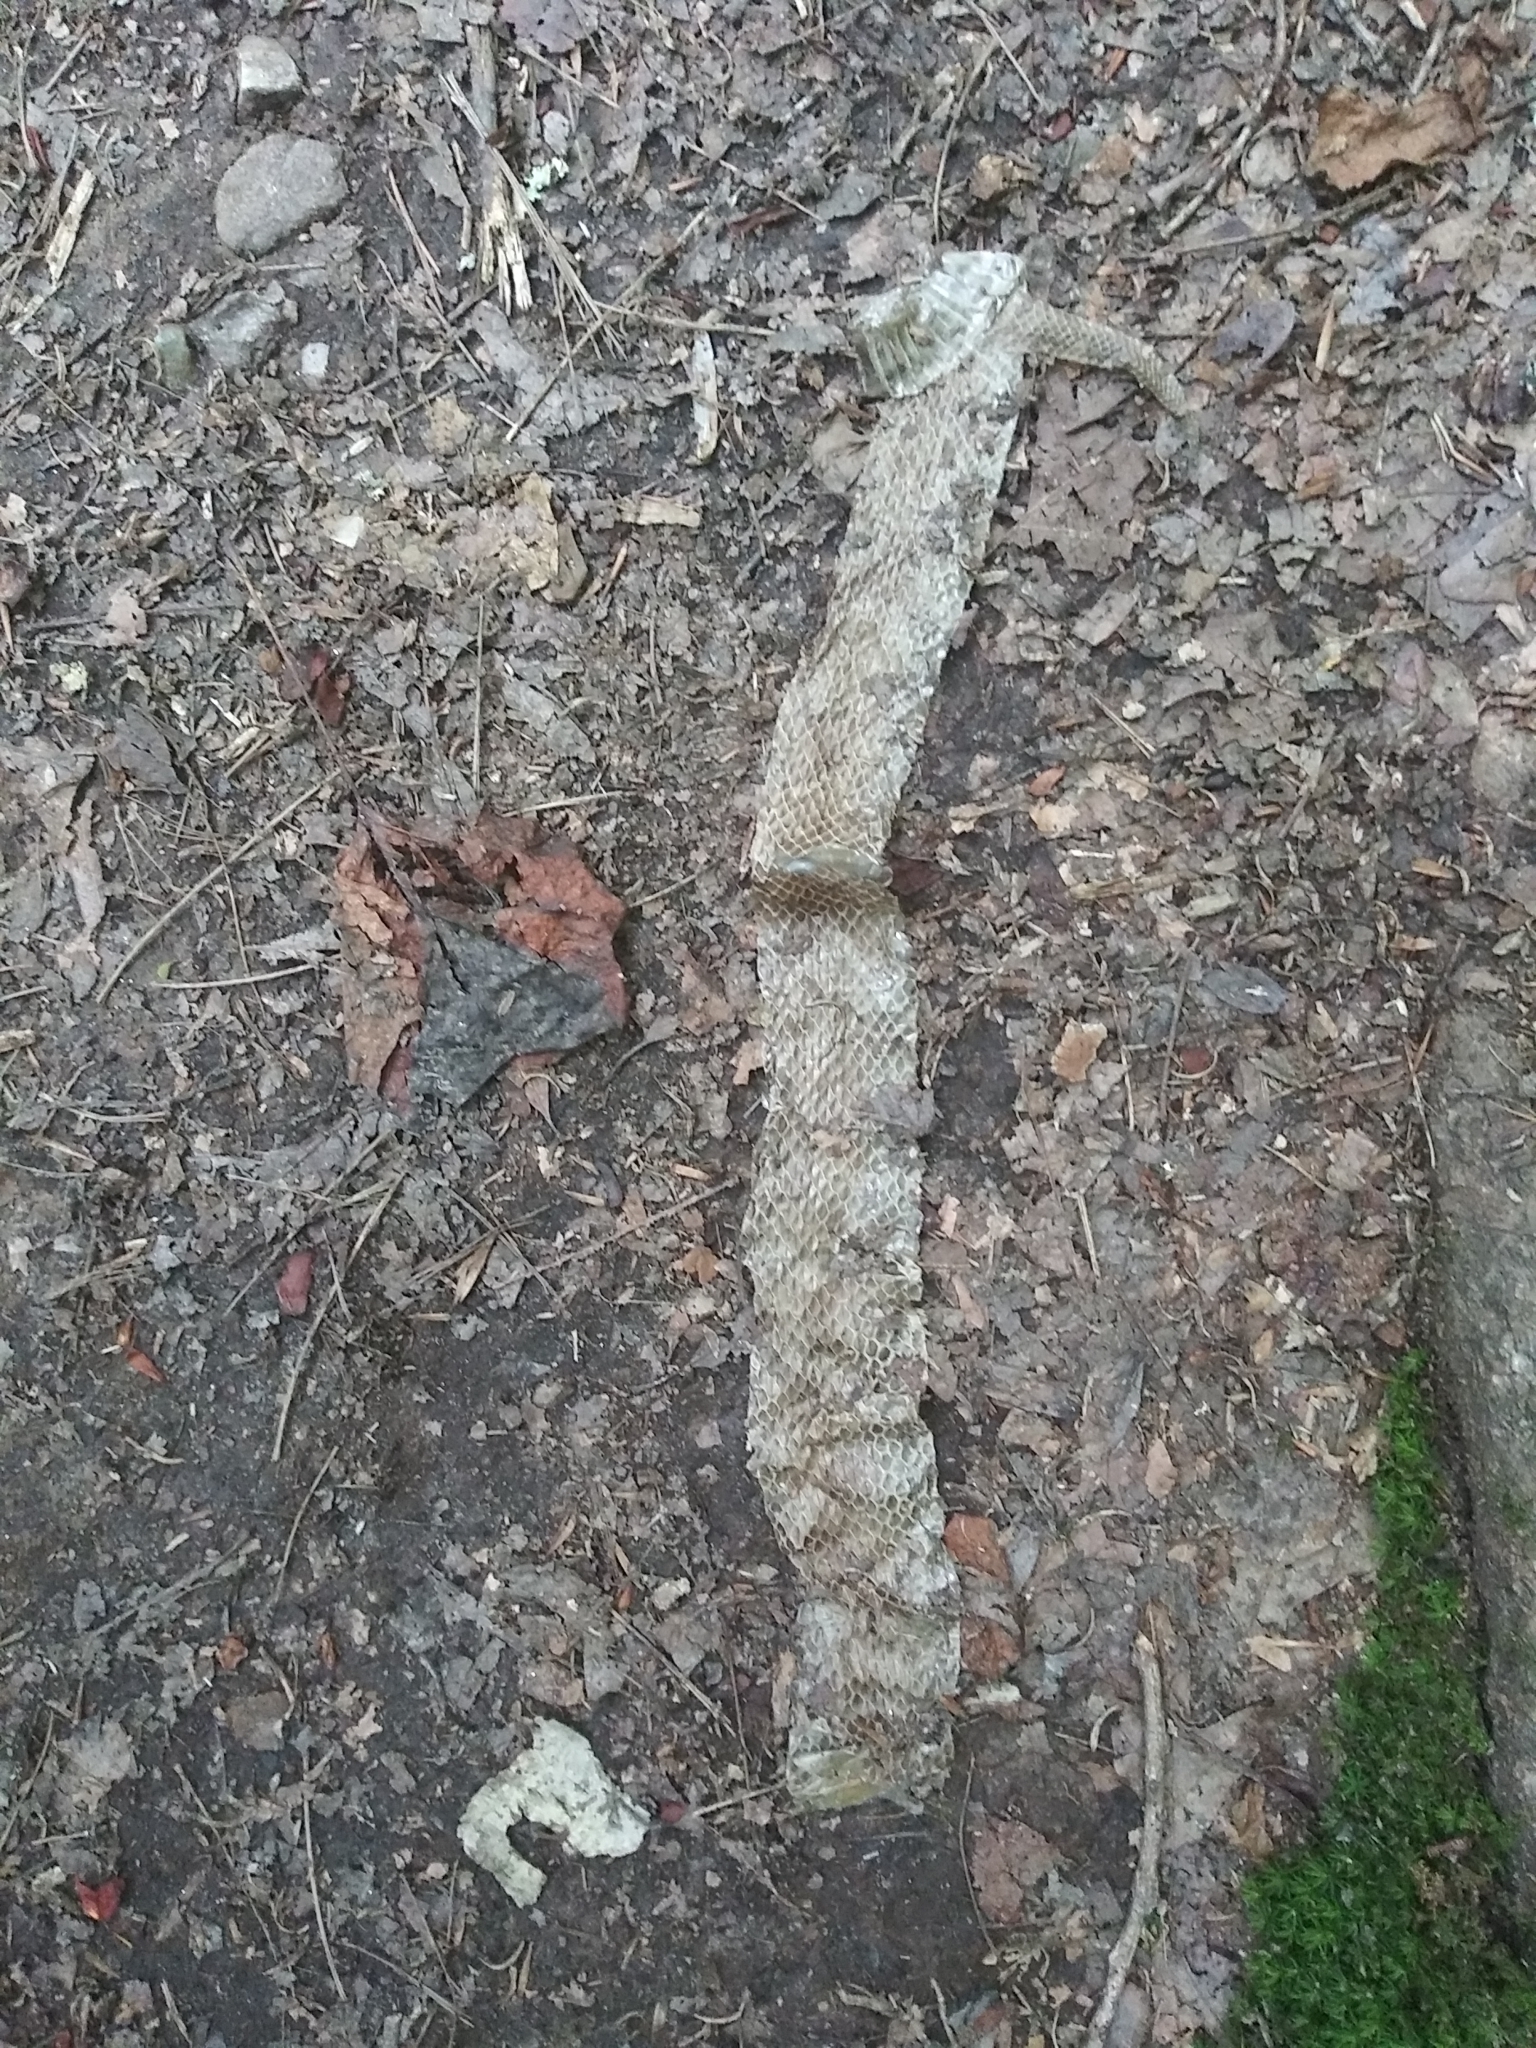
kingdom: Animalia
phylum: Chordata
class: Squamata
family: Viperidae
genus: Agkistrodon
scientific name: Agkistrodon contortrix
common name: Northern copperhead
